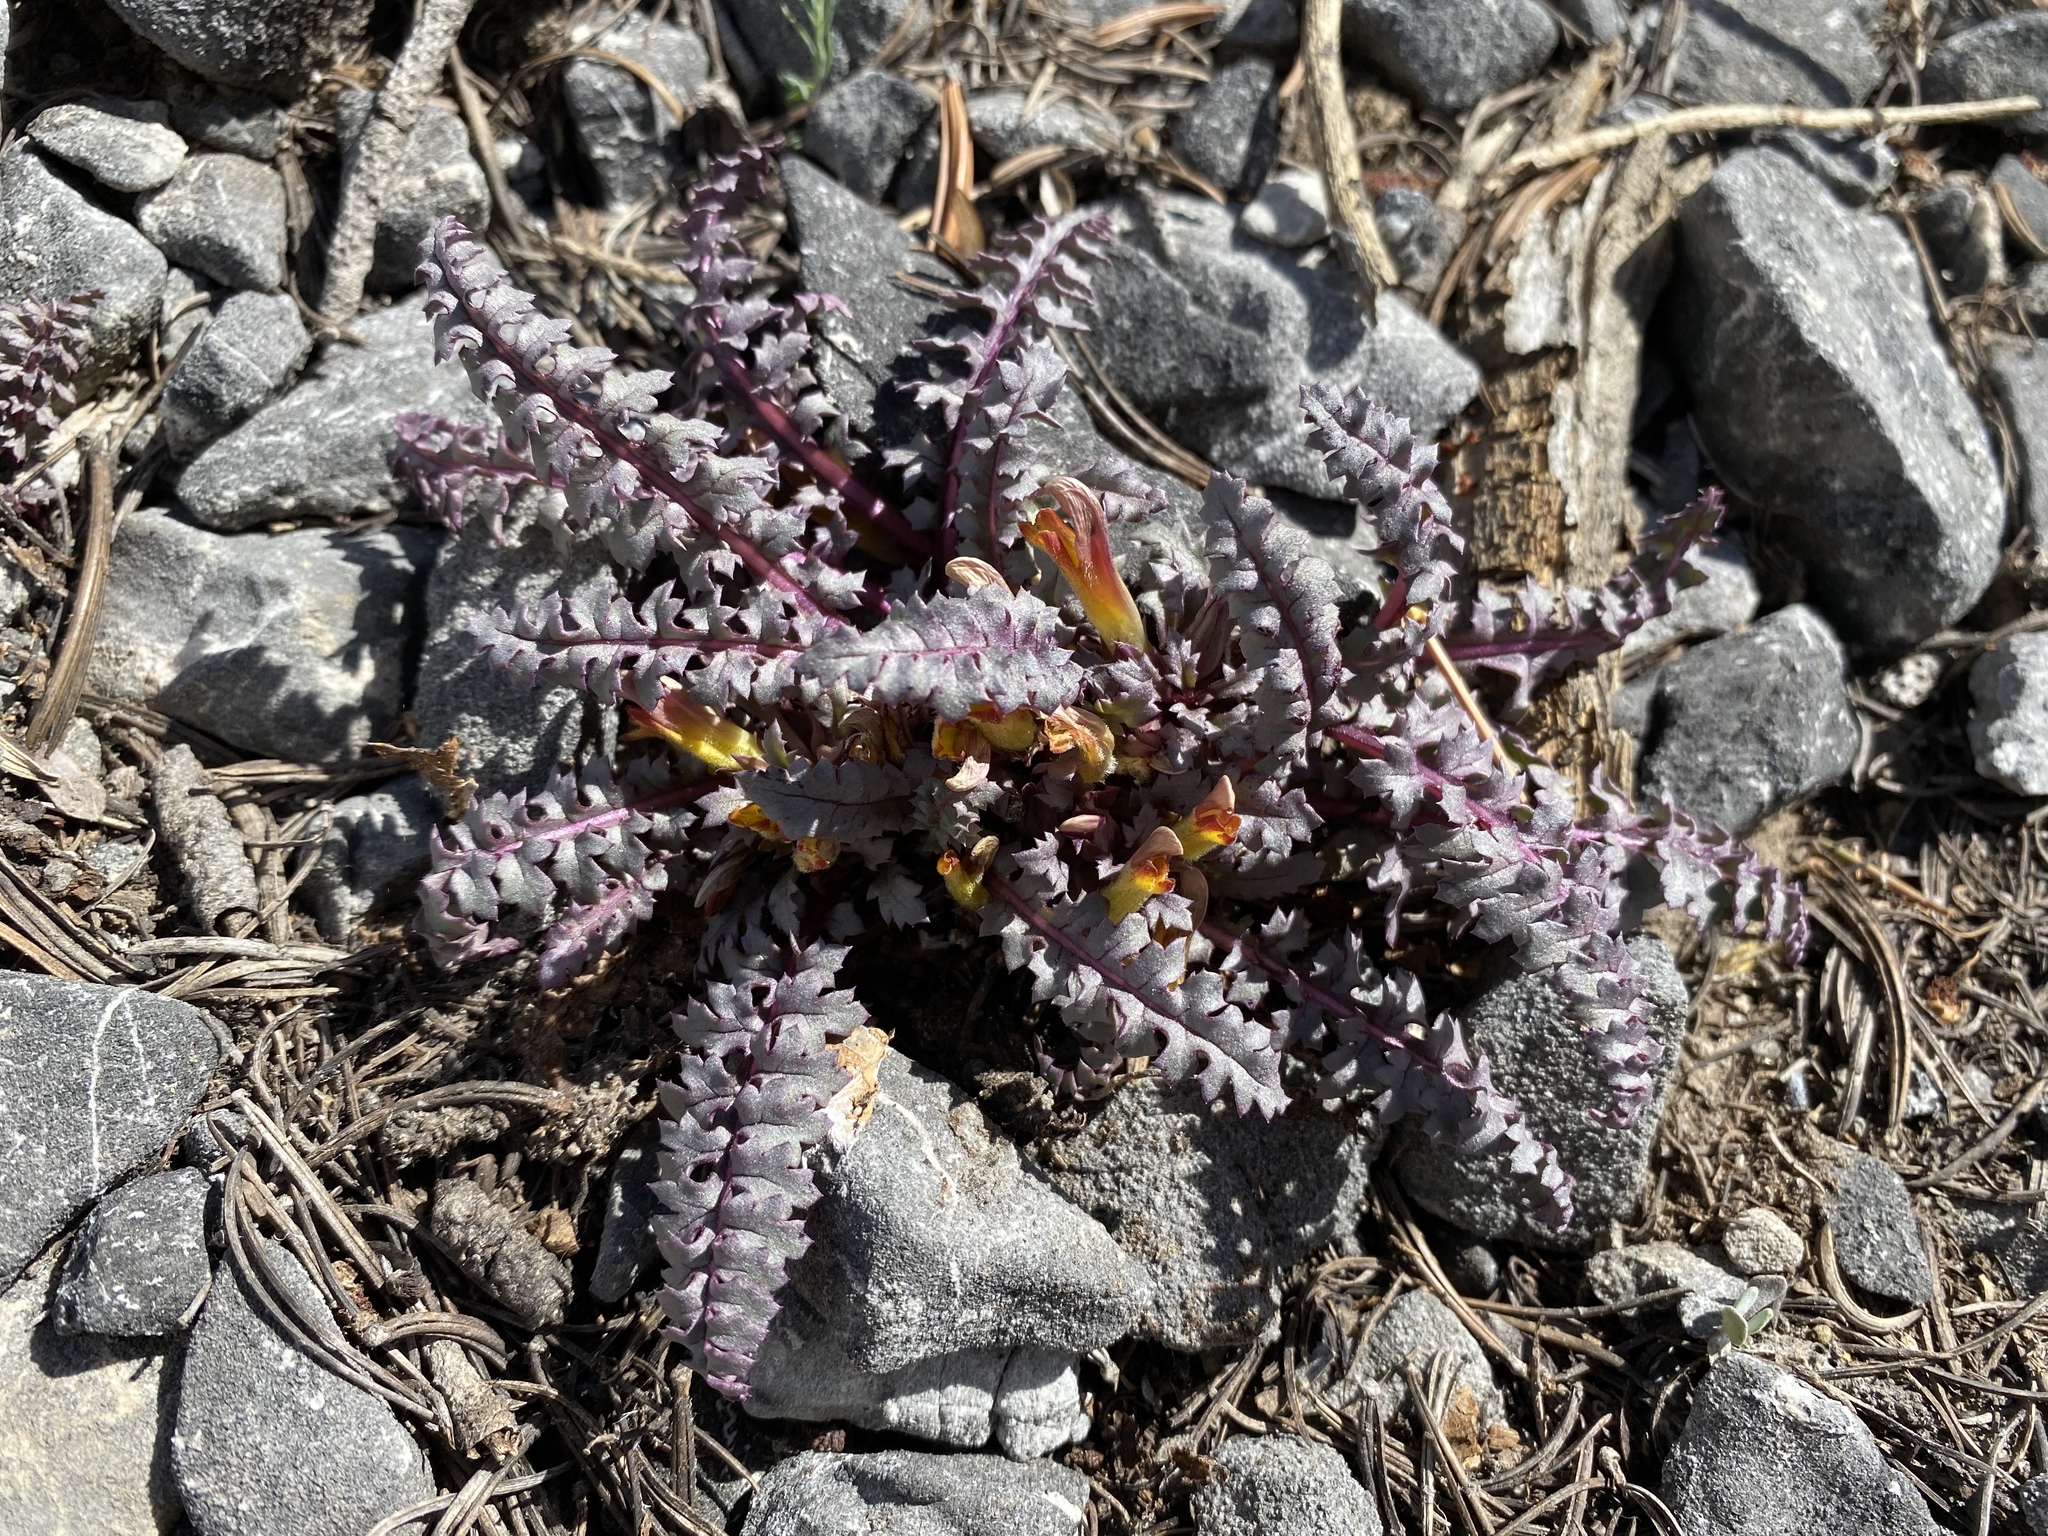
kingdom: Plantae
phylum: Tracheophyta
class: Magnoliopsida
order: Lamiales
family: Orobanchaceae
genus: Pedicularis
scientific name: Pedicularis semibarbata
